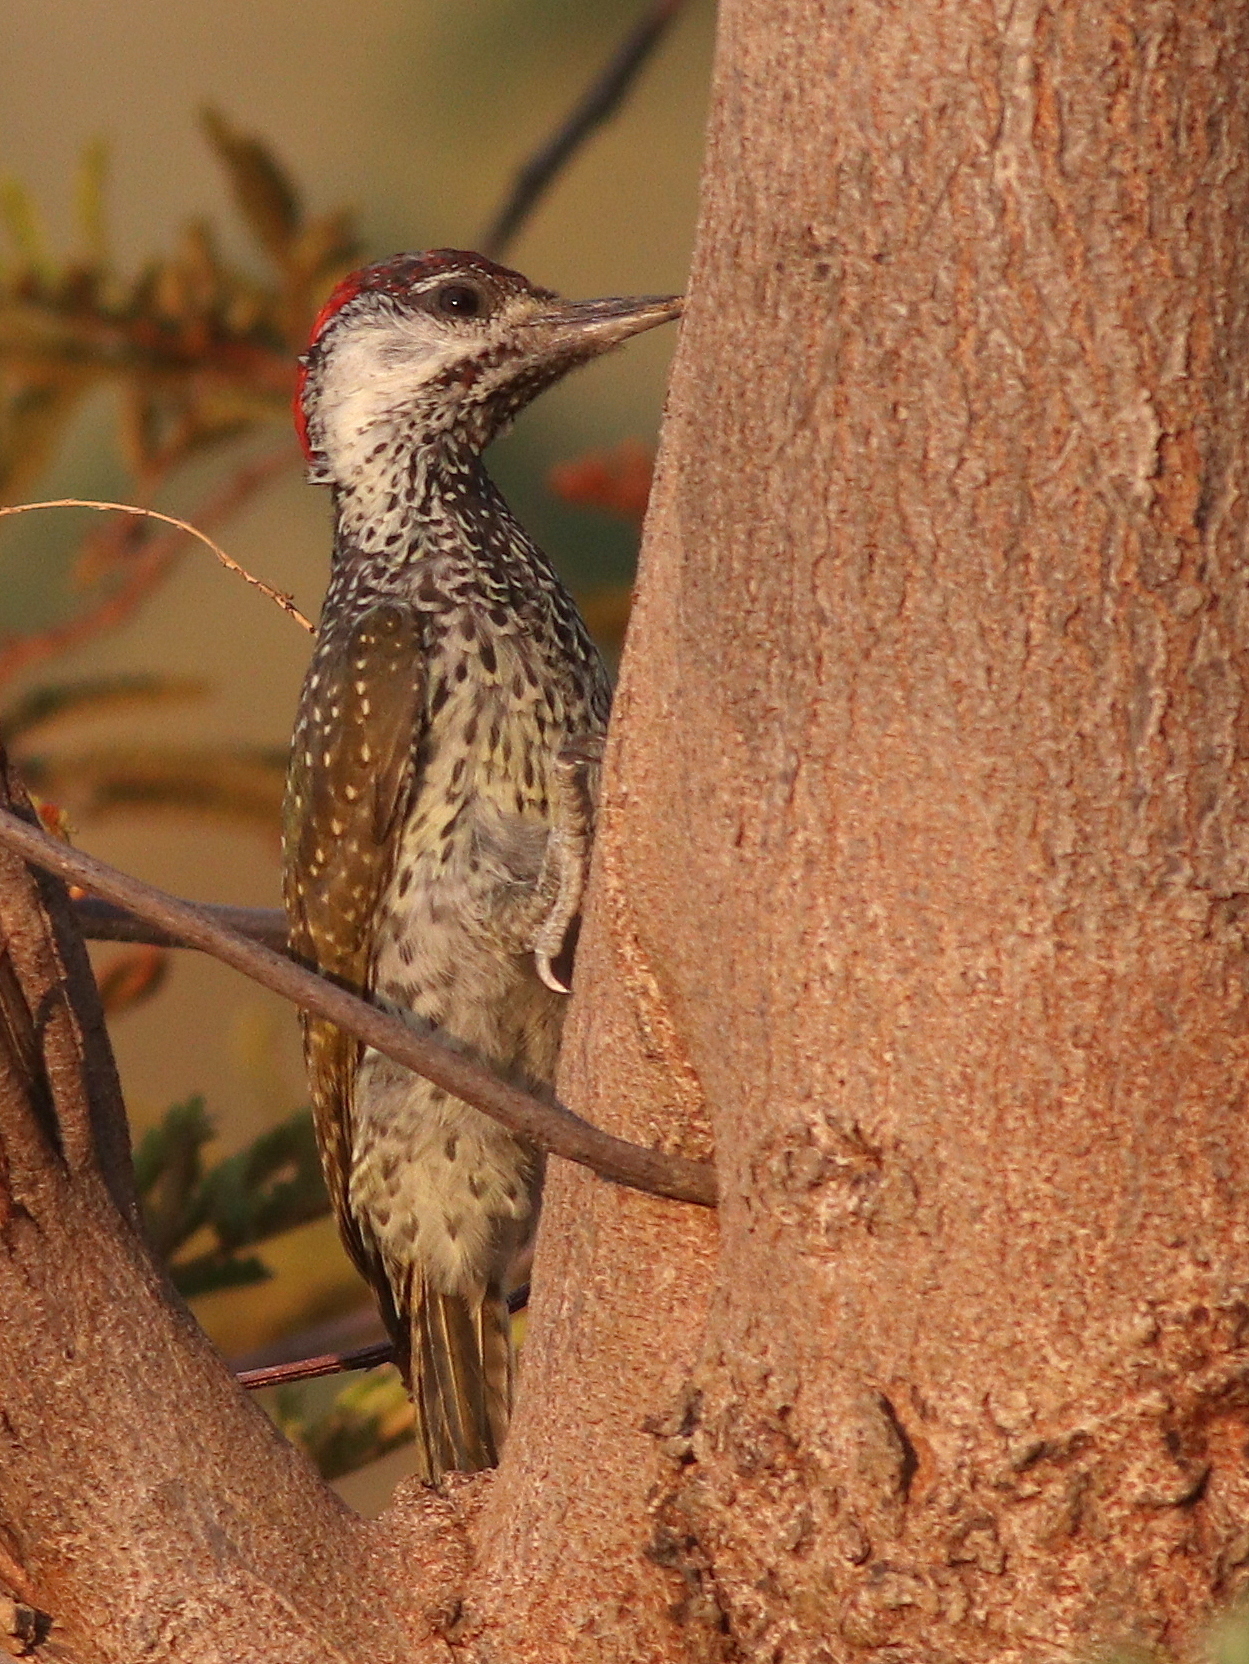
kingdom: Animalia
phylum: Chordata
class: Aves
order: Piciformes
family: Picidae
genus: Campethera
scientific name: Campethera abingoni
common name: Golden-tailed woodpecker
